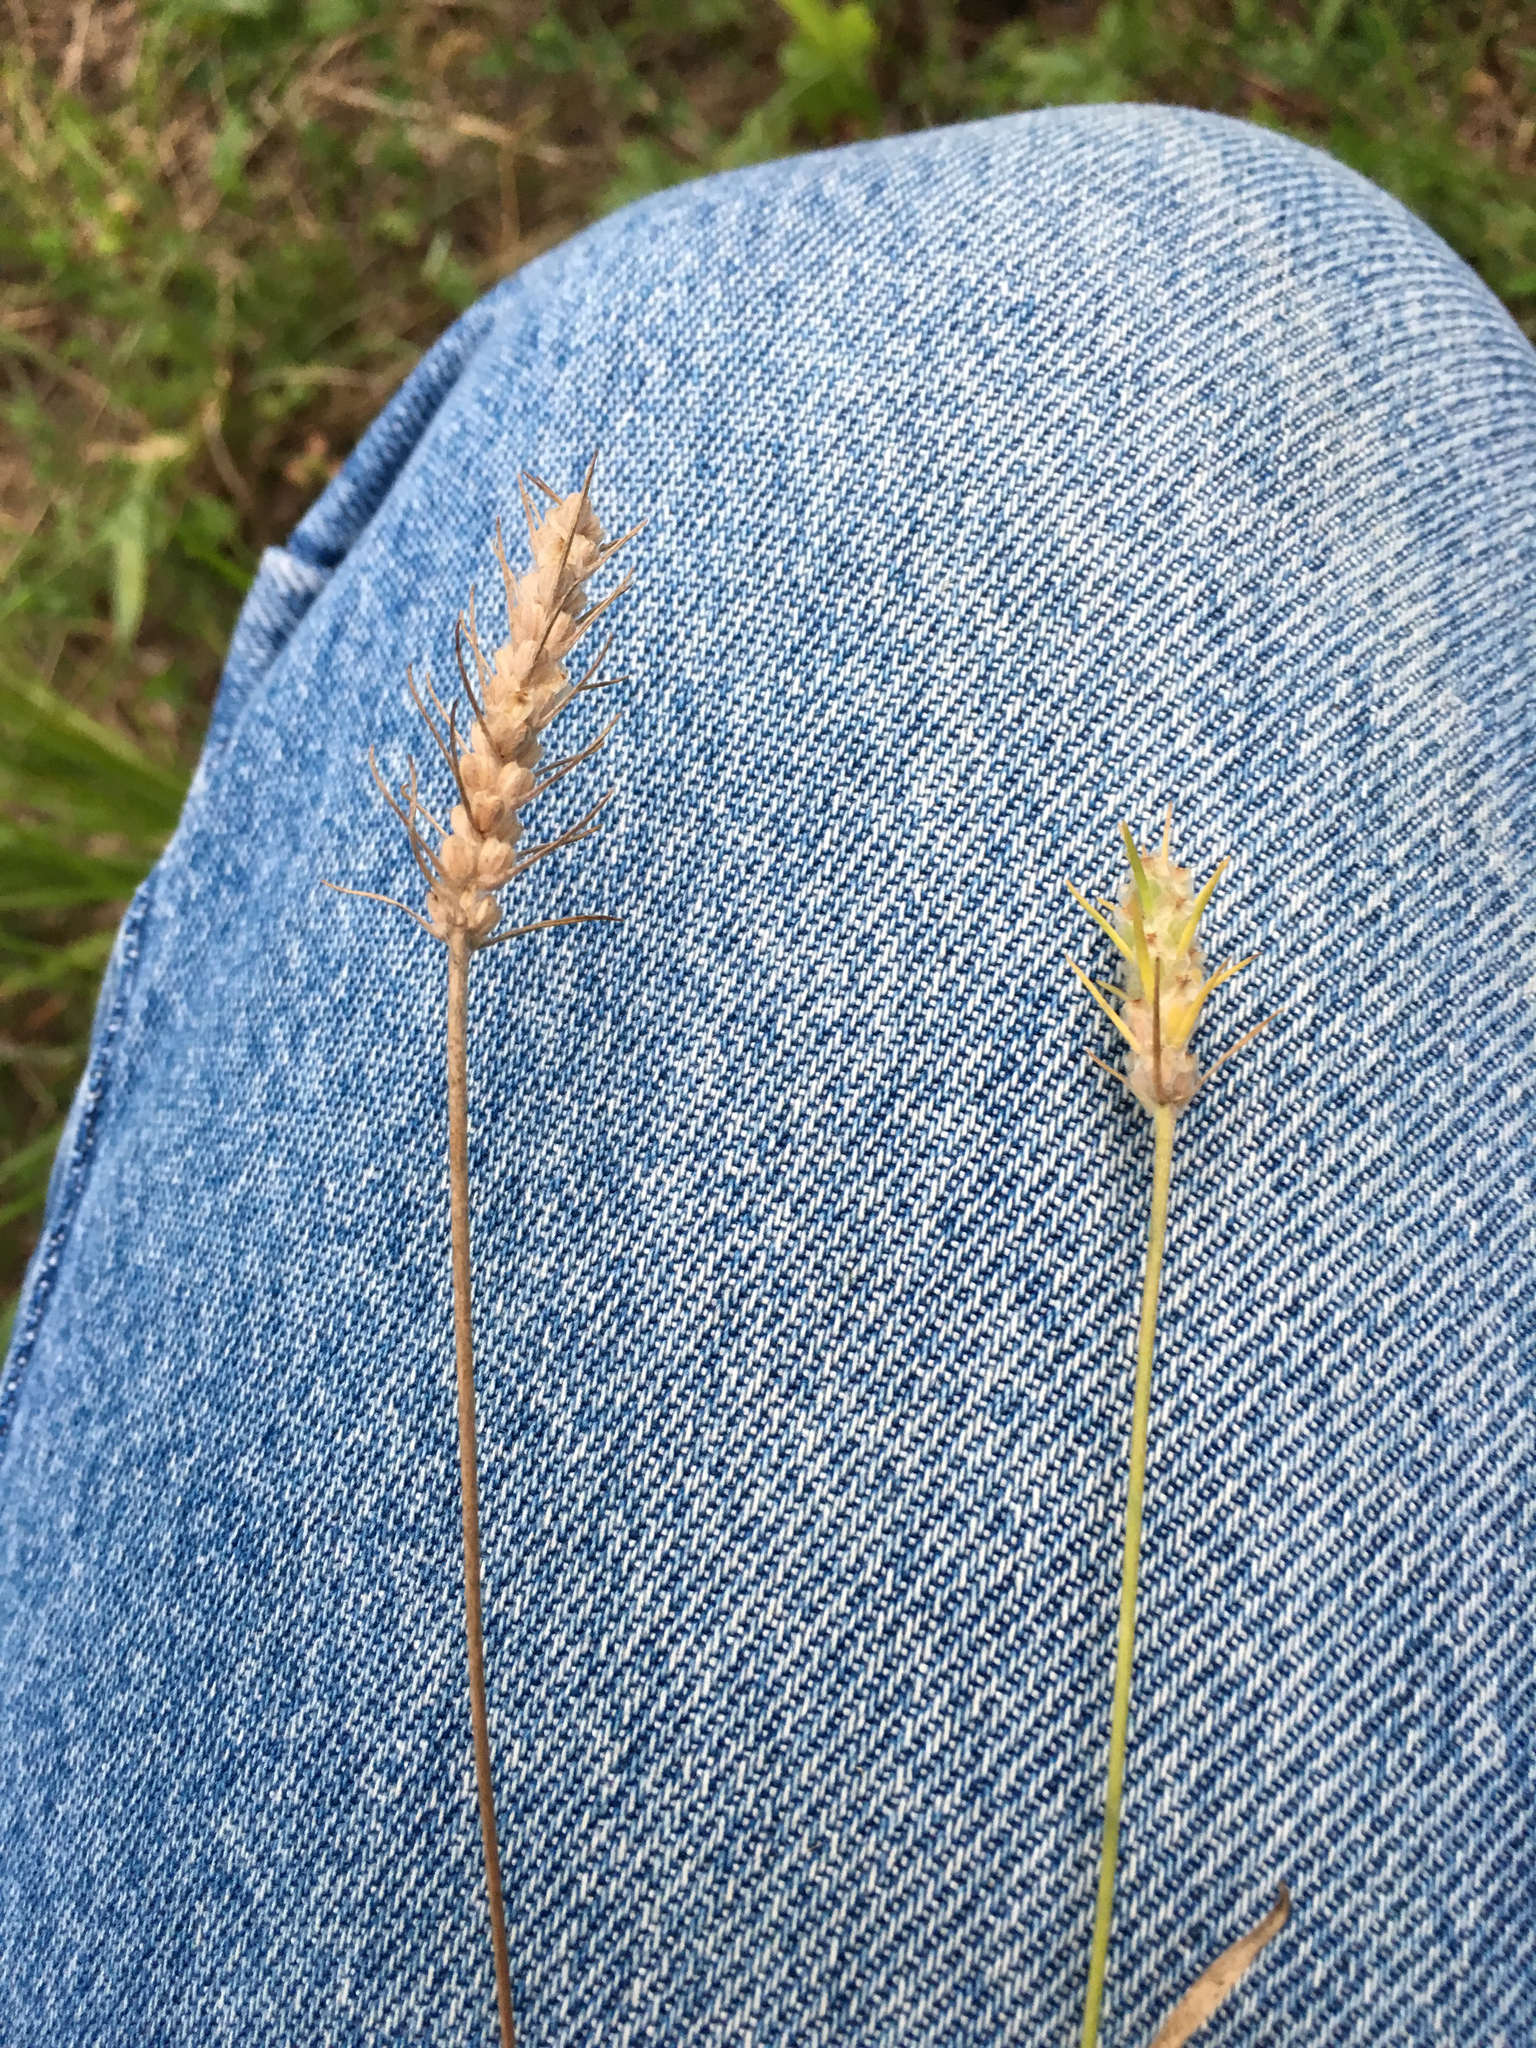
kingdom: Plantae
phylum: Tracheophyta
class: Magnoliopsida
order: Lamiales
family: Plantaginaceae
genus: Plantago
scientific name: Plantago aristata
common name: Bracted plantain
